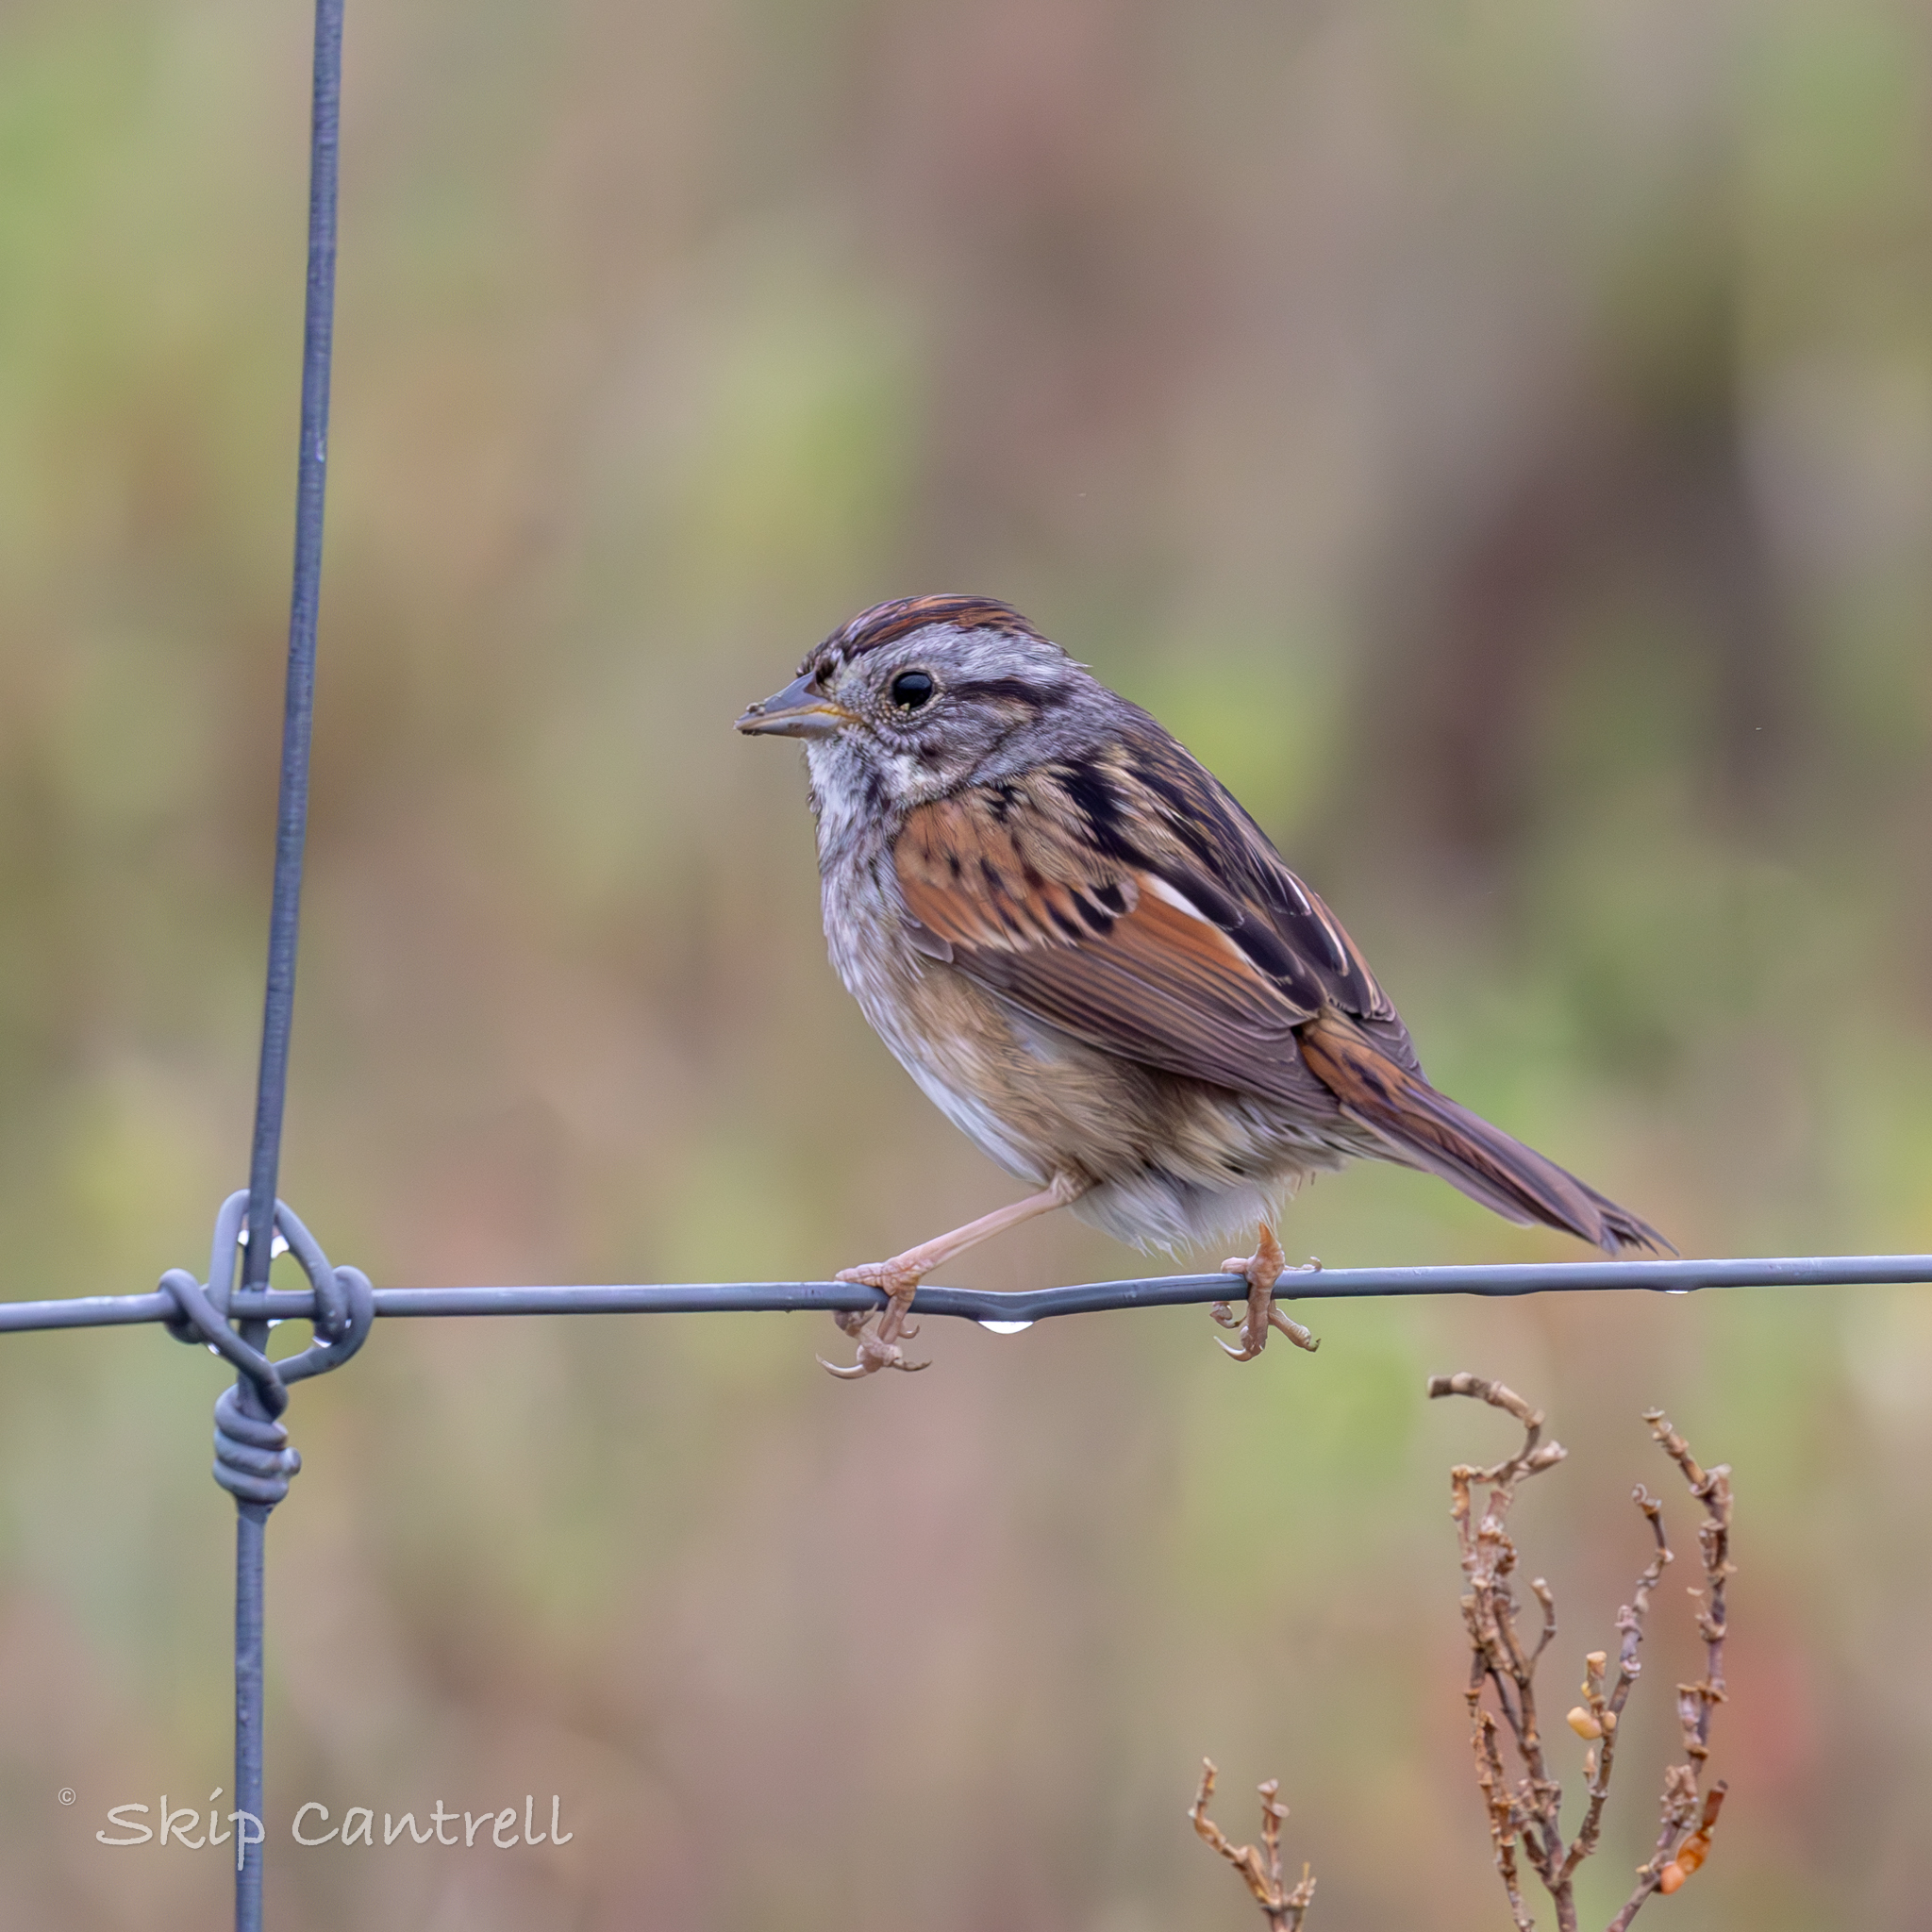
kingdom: Animalia
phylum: Chordata
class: Aves
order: Passeriformes
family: Passerellidae
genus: Melospiza
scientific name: Melospiza georgiana
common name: Swamp sparrow
